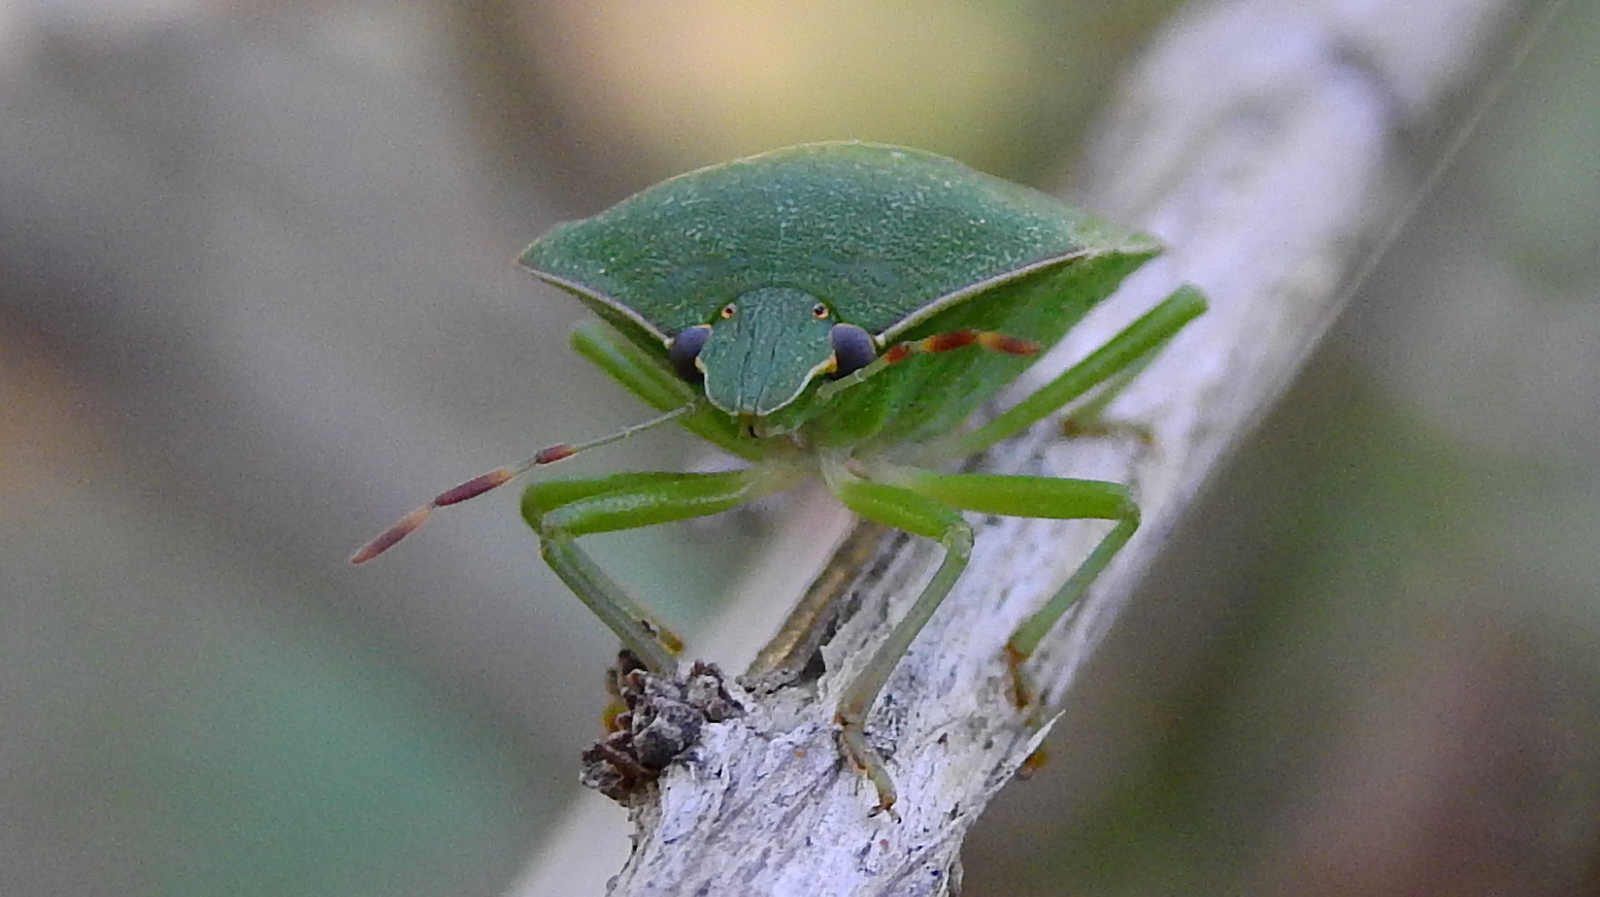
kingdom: Animalia
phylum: Arthropoda
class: Insecta
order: Hemiptera
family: Pentatomidae
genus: Nezara
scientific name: Nezara viridula
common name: Southern green stink bug
